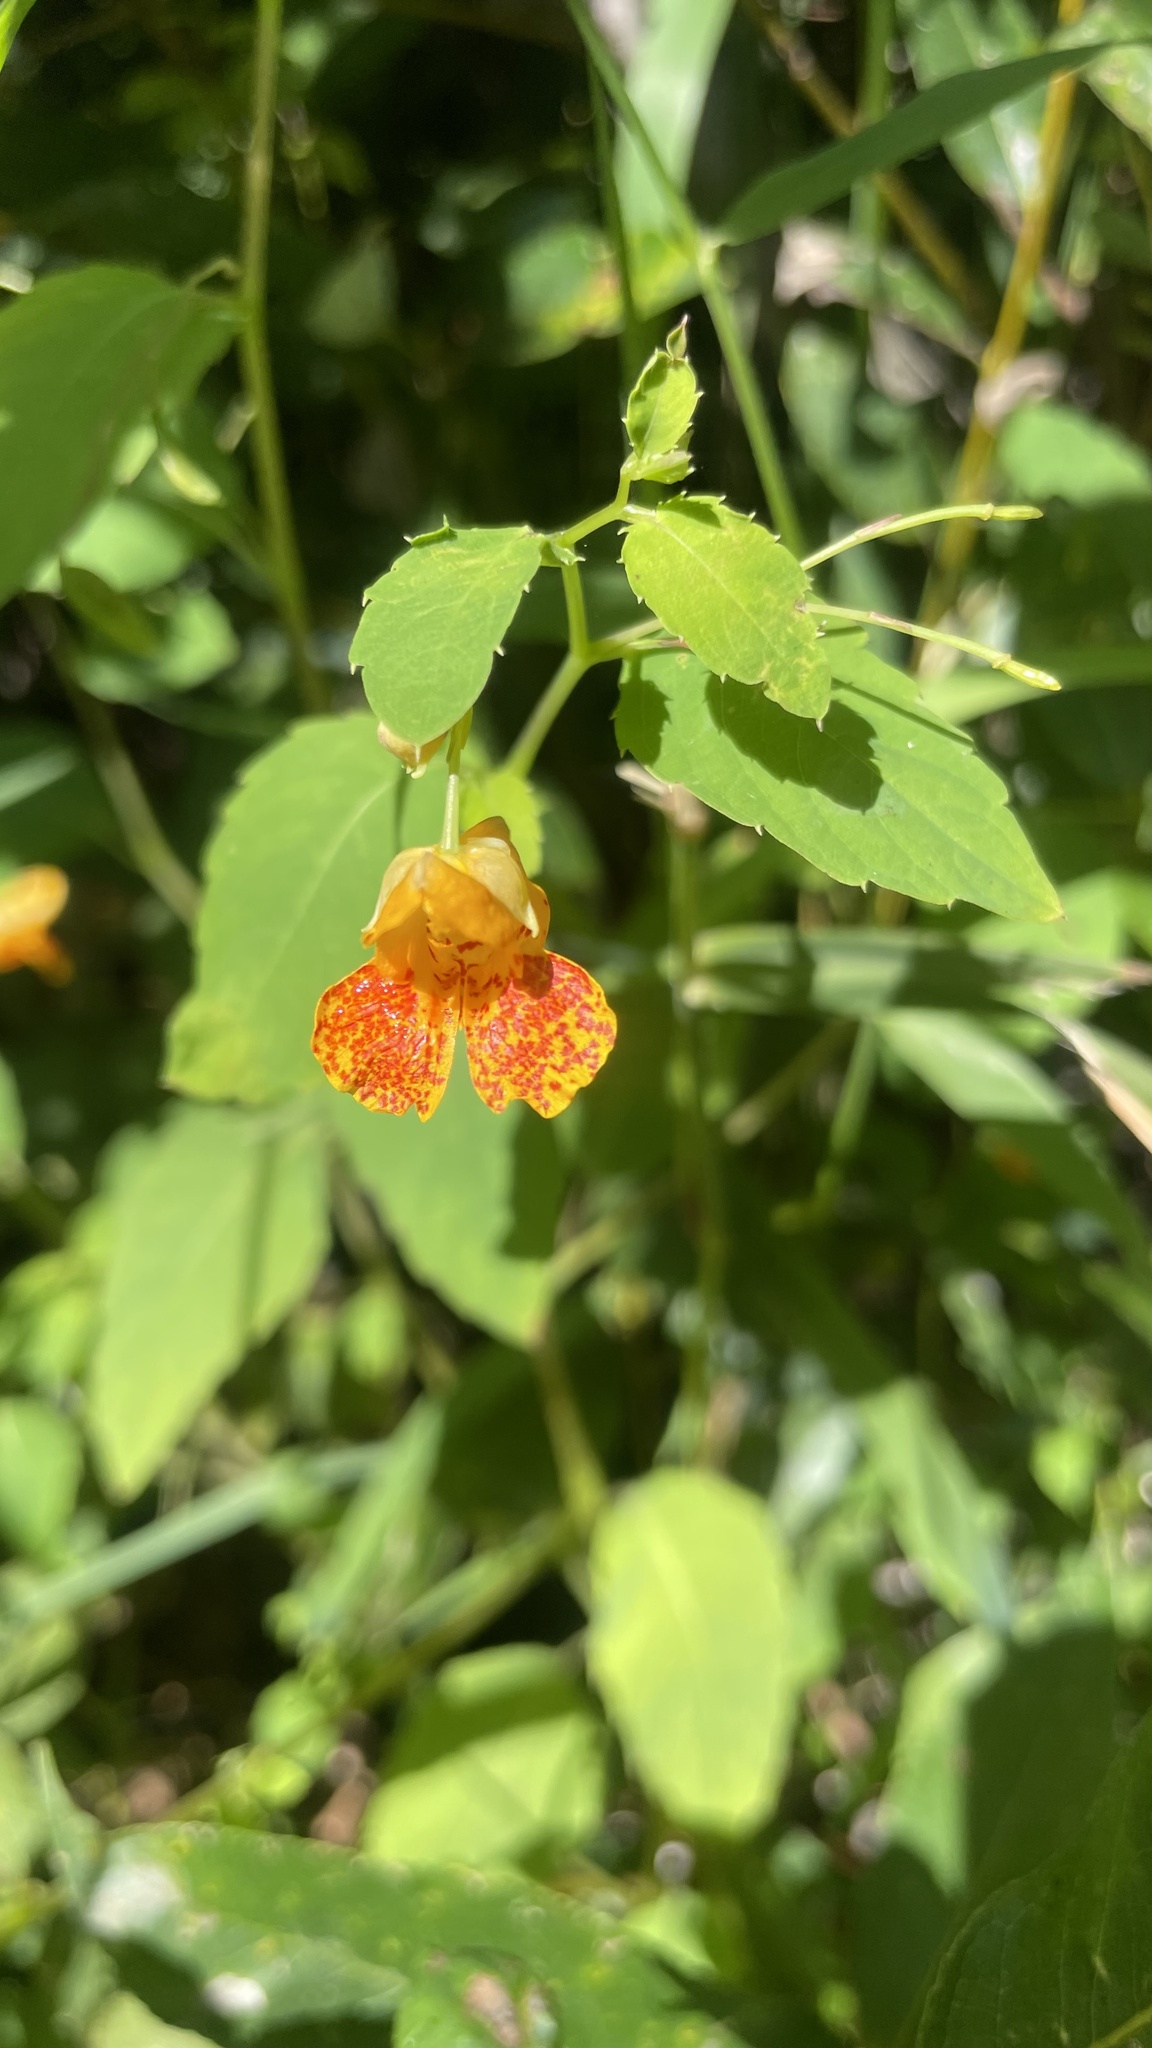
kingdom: Plantae
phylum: Tracheophyta
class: Magnoliopsida
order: Ericales
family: Balsaminaceae
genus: Impatiens
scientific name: Impatiens capensis
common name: Orange balsam
